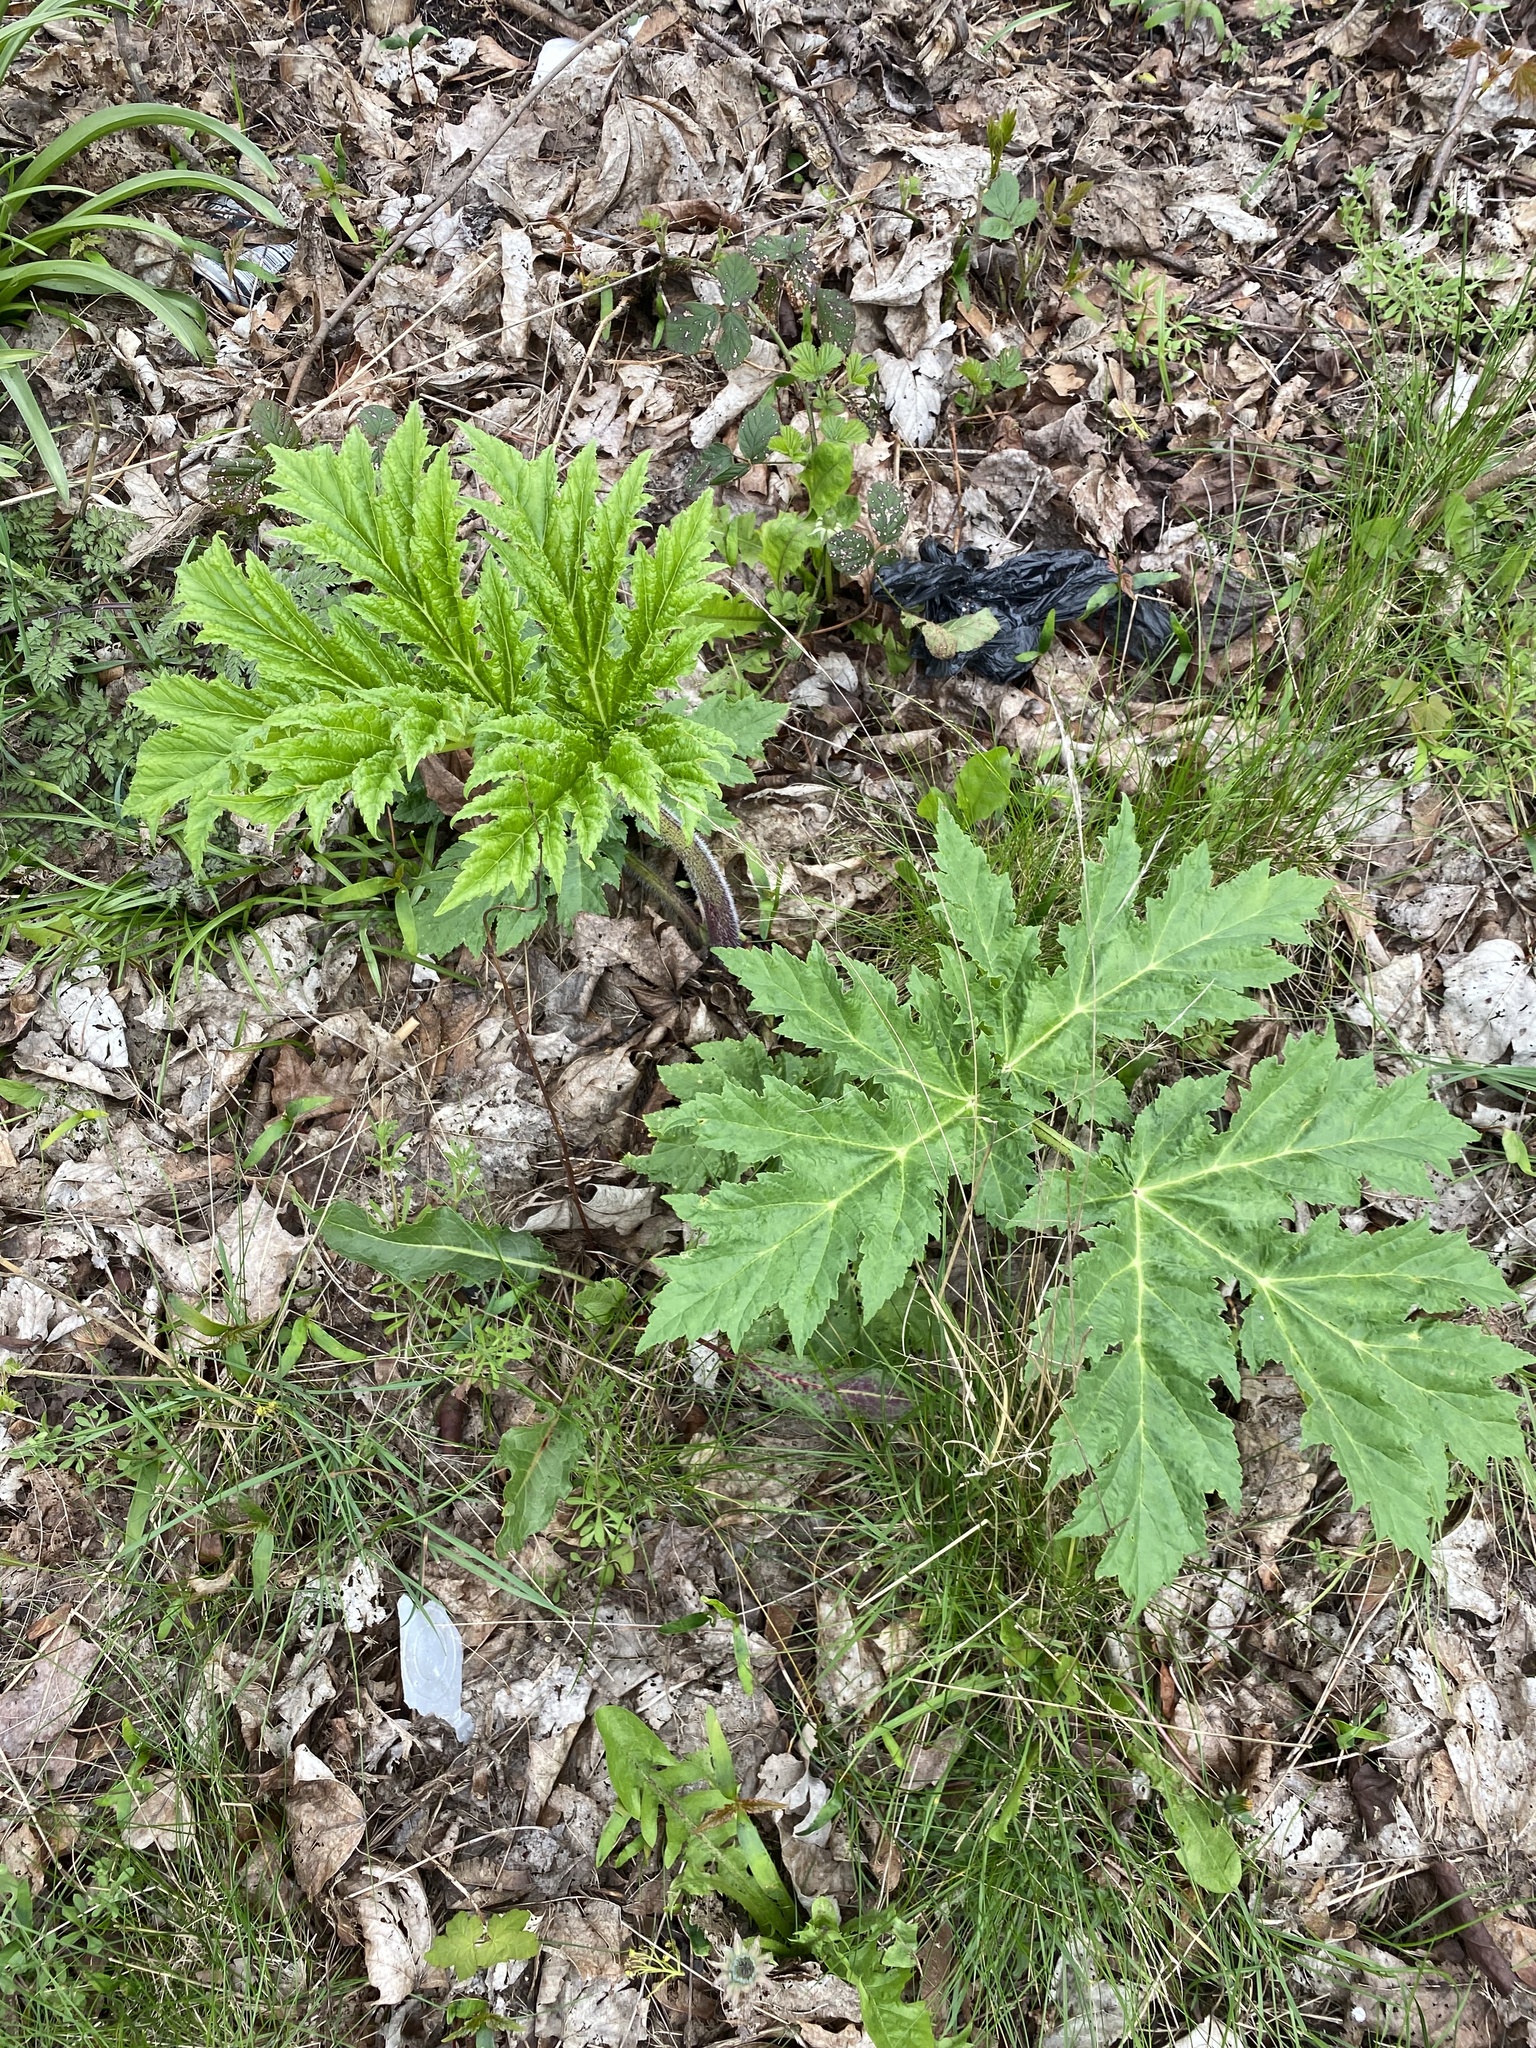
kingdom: Plantae
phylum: Tracheophyta
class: Magnoliopsida
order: Apiales
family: Apiaceae
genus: Heracleum
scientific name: Heracleum mantegazzianum
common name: Giant hogweed
